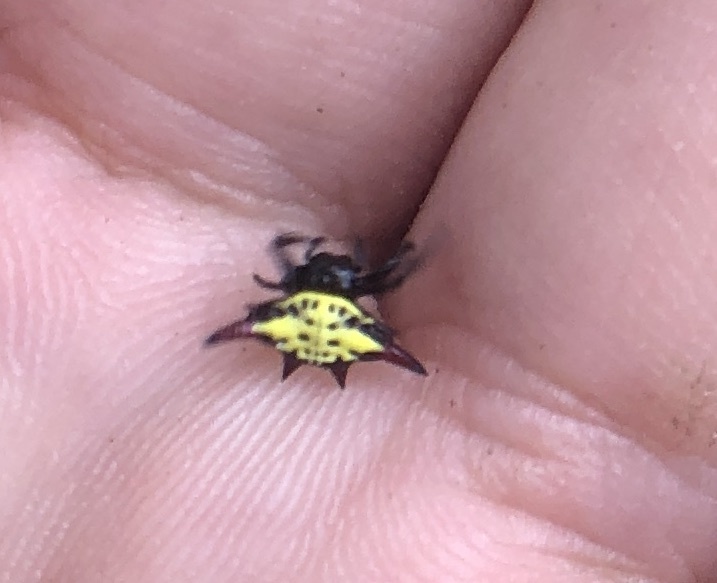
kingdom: Animalia
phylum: Arthropoda
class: Arachnida
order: Araneae
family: Araneidae
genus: Gasteracantha
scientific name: Gasteracantha sauteri
